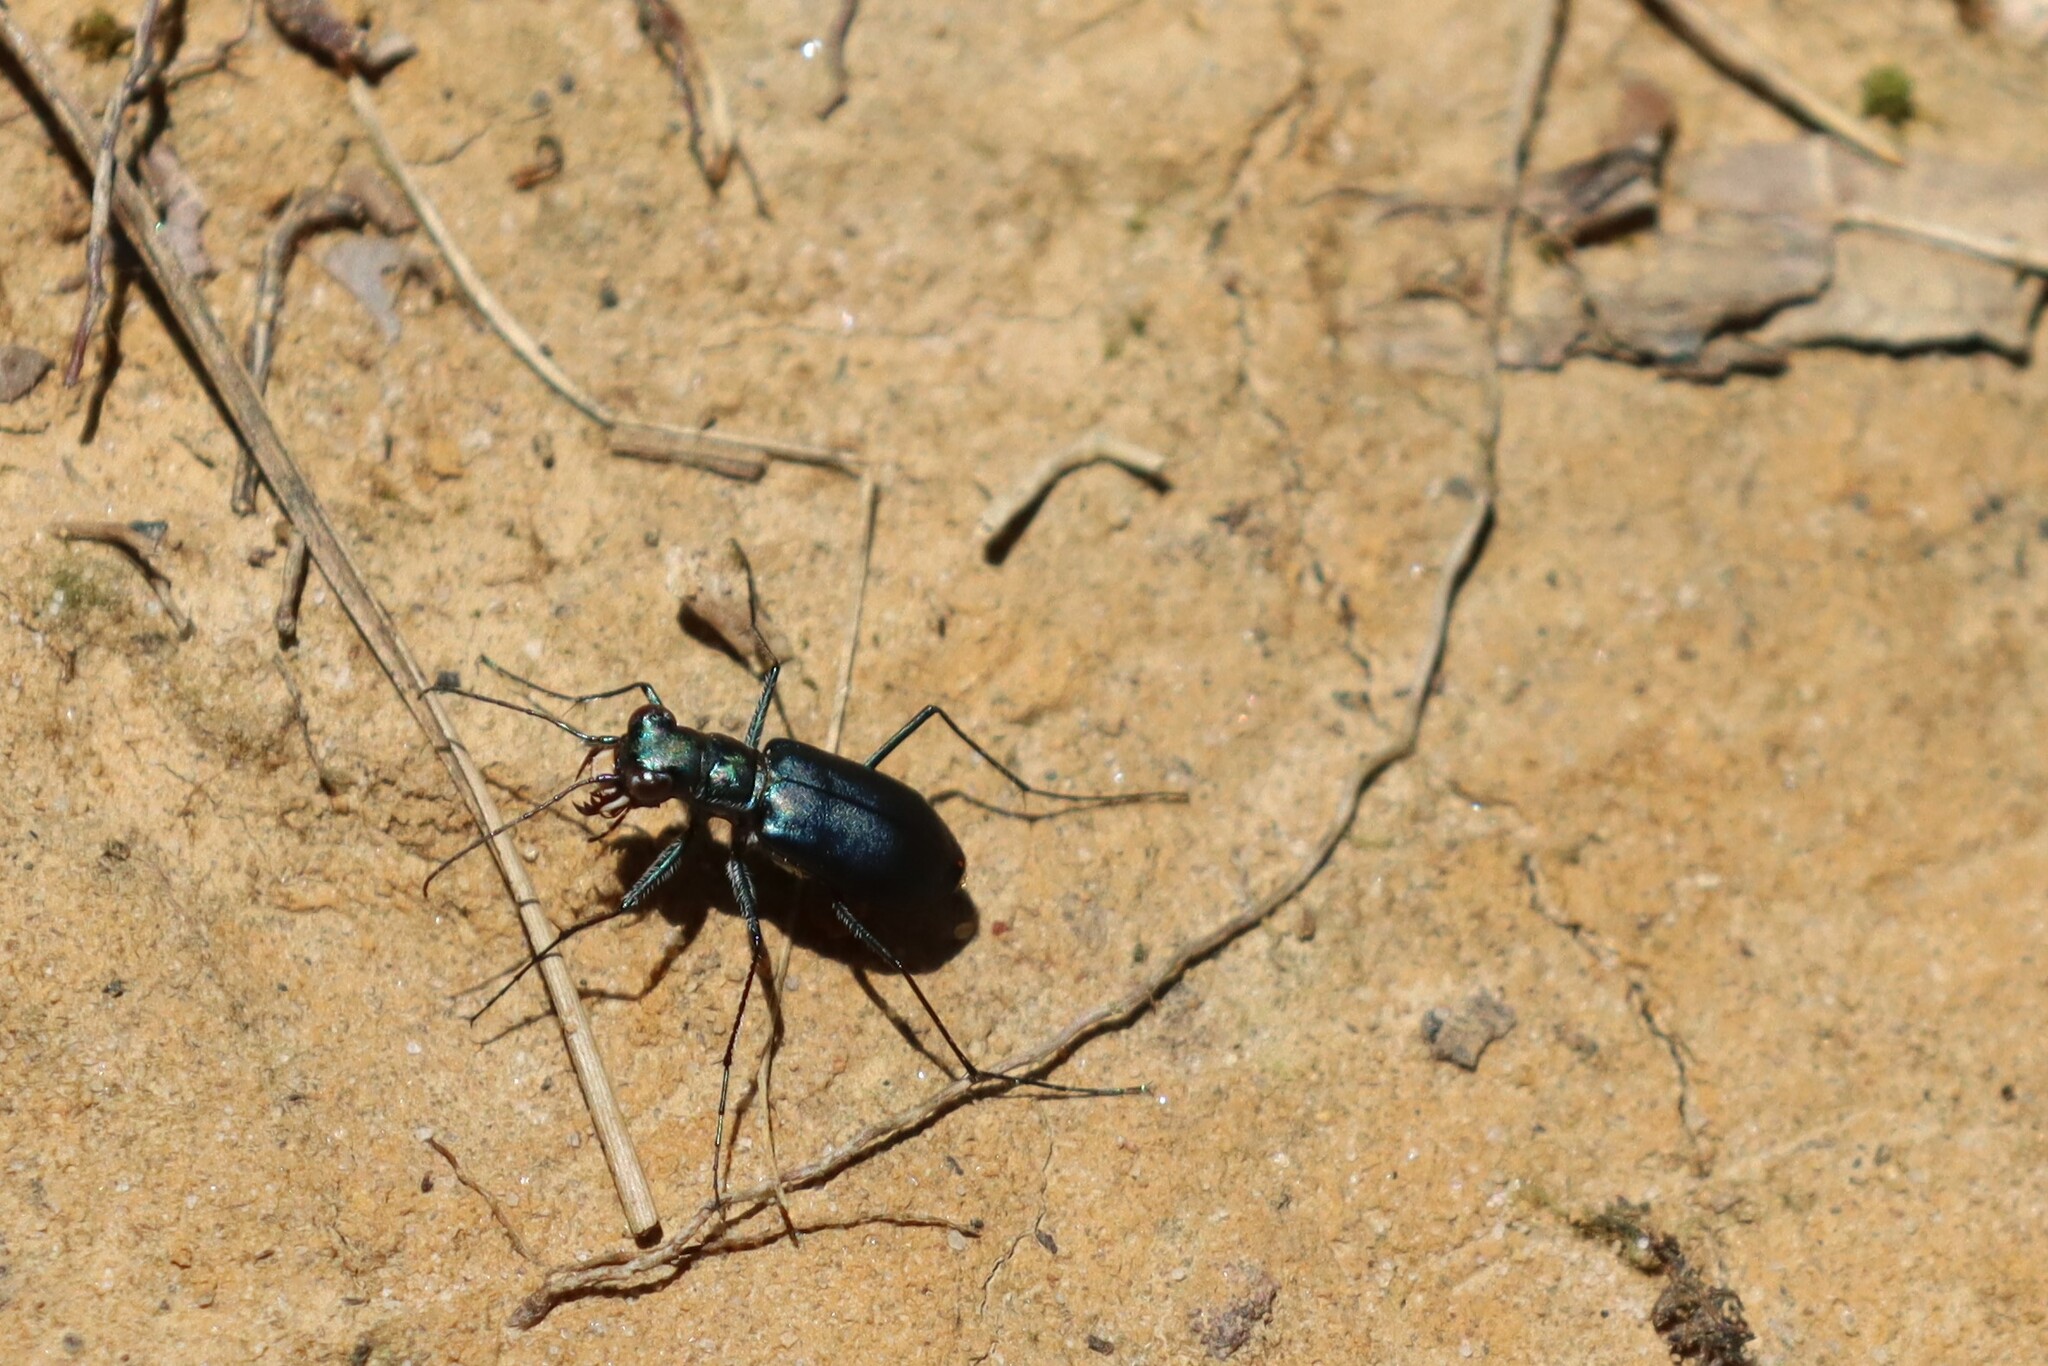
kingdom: Animalia
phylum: Arthropoda
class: Insecta
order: Coleoptera
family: Carabidae
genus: Cicindela
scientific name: Cicindela rufiventris
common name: Eastern red-bellied tiger beetle
